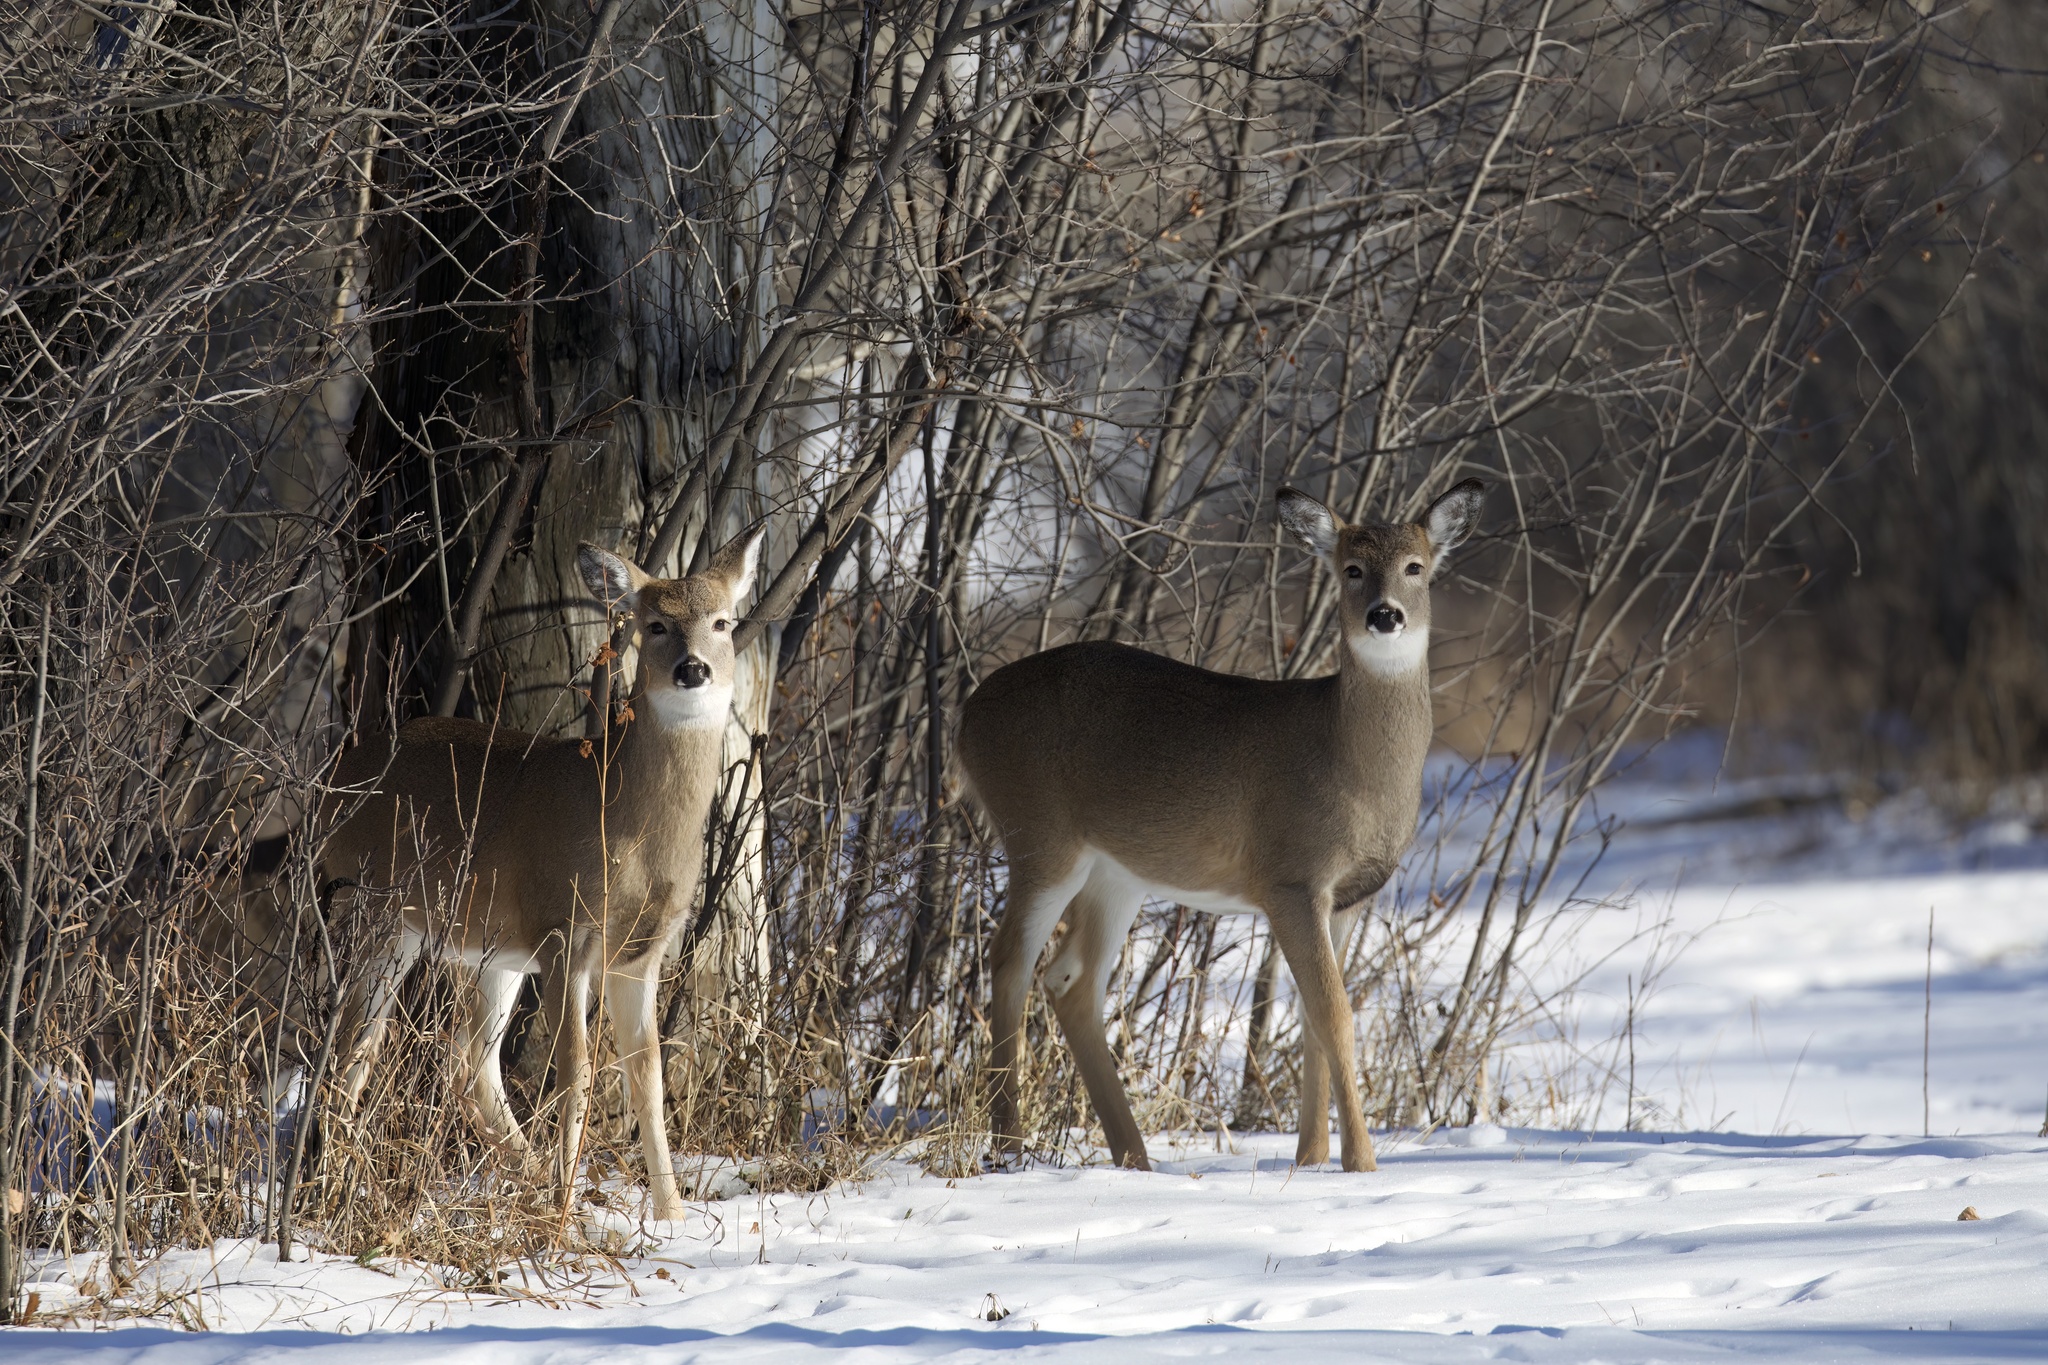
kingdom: Animalia
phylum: Chordata
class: Mammalia
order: Artiodactyla
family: Cervidae
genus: Odocoileus
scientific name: Odocoileus virginianus
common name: White-tailed deer
